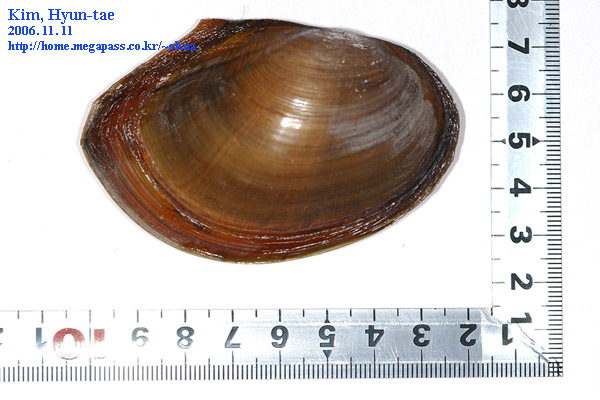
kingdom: Animalia
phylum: Mollusca
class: Bivalvia
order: Unionida
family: Unionidae
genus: Sinanodonta
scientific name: Sinanodonta lauta
